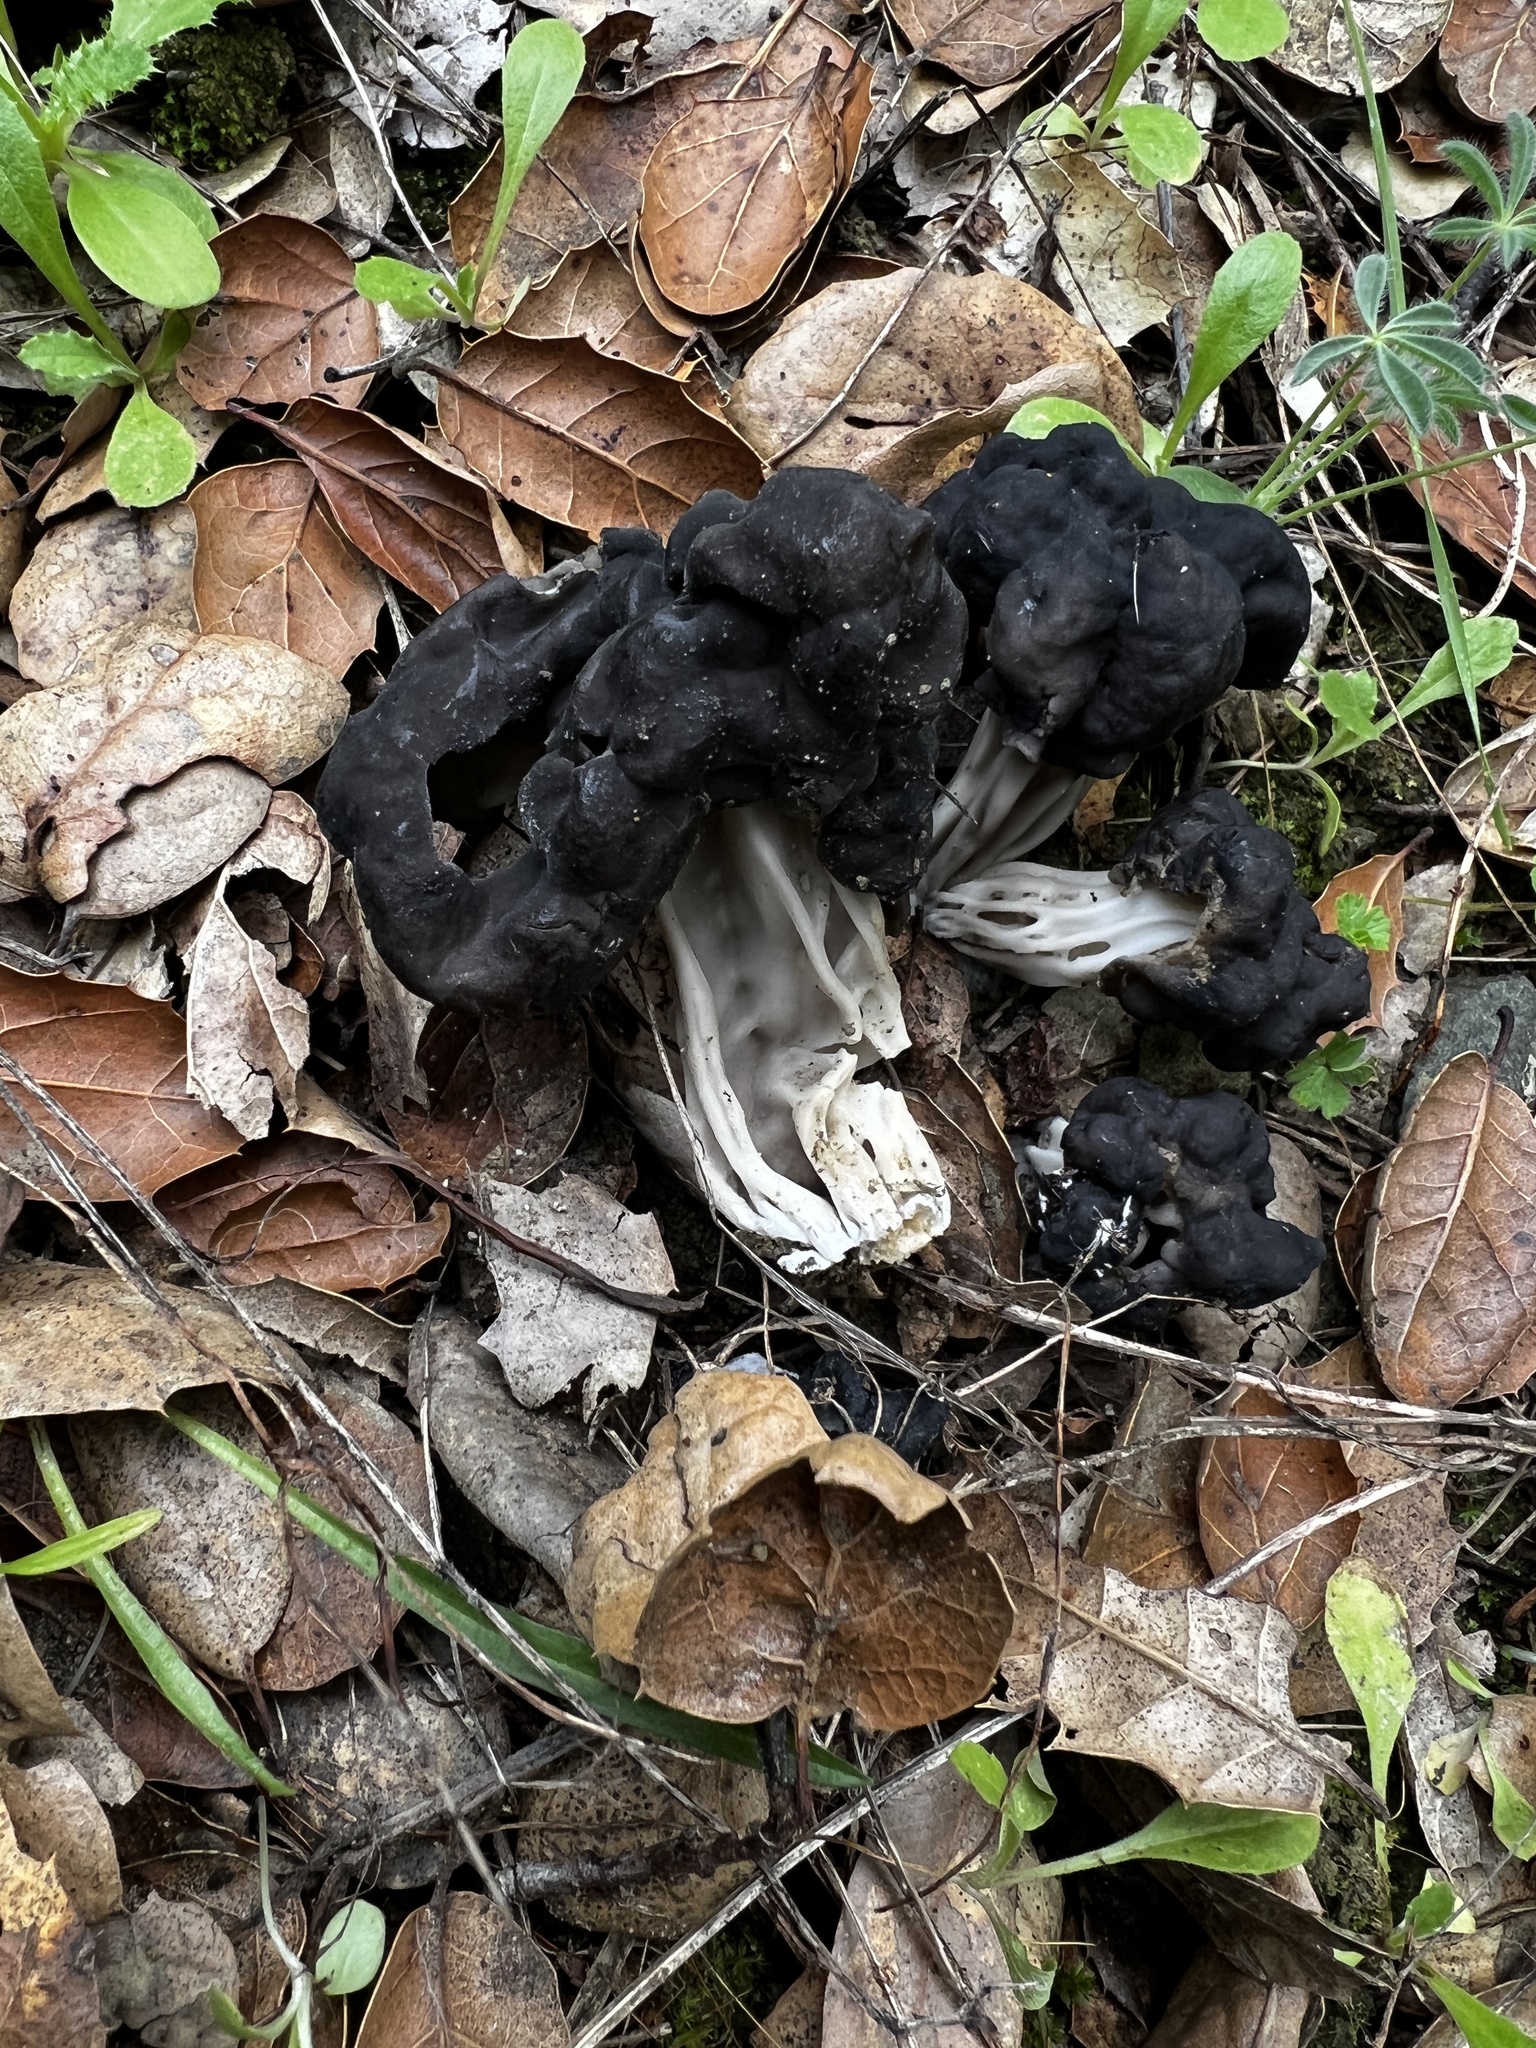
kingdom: Fungi
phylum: Ascomycota
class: Pezizomycetes
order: Pezizales
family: Helvellaceae
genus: Helvella
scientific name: Helvella dryophila
